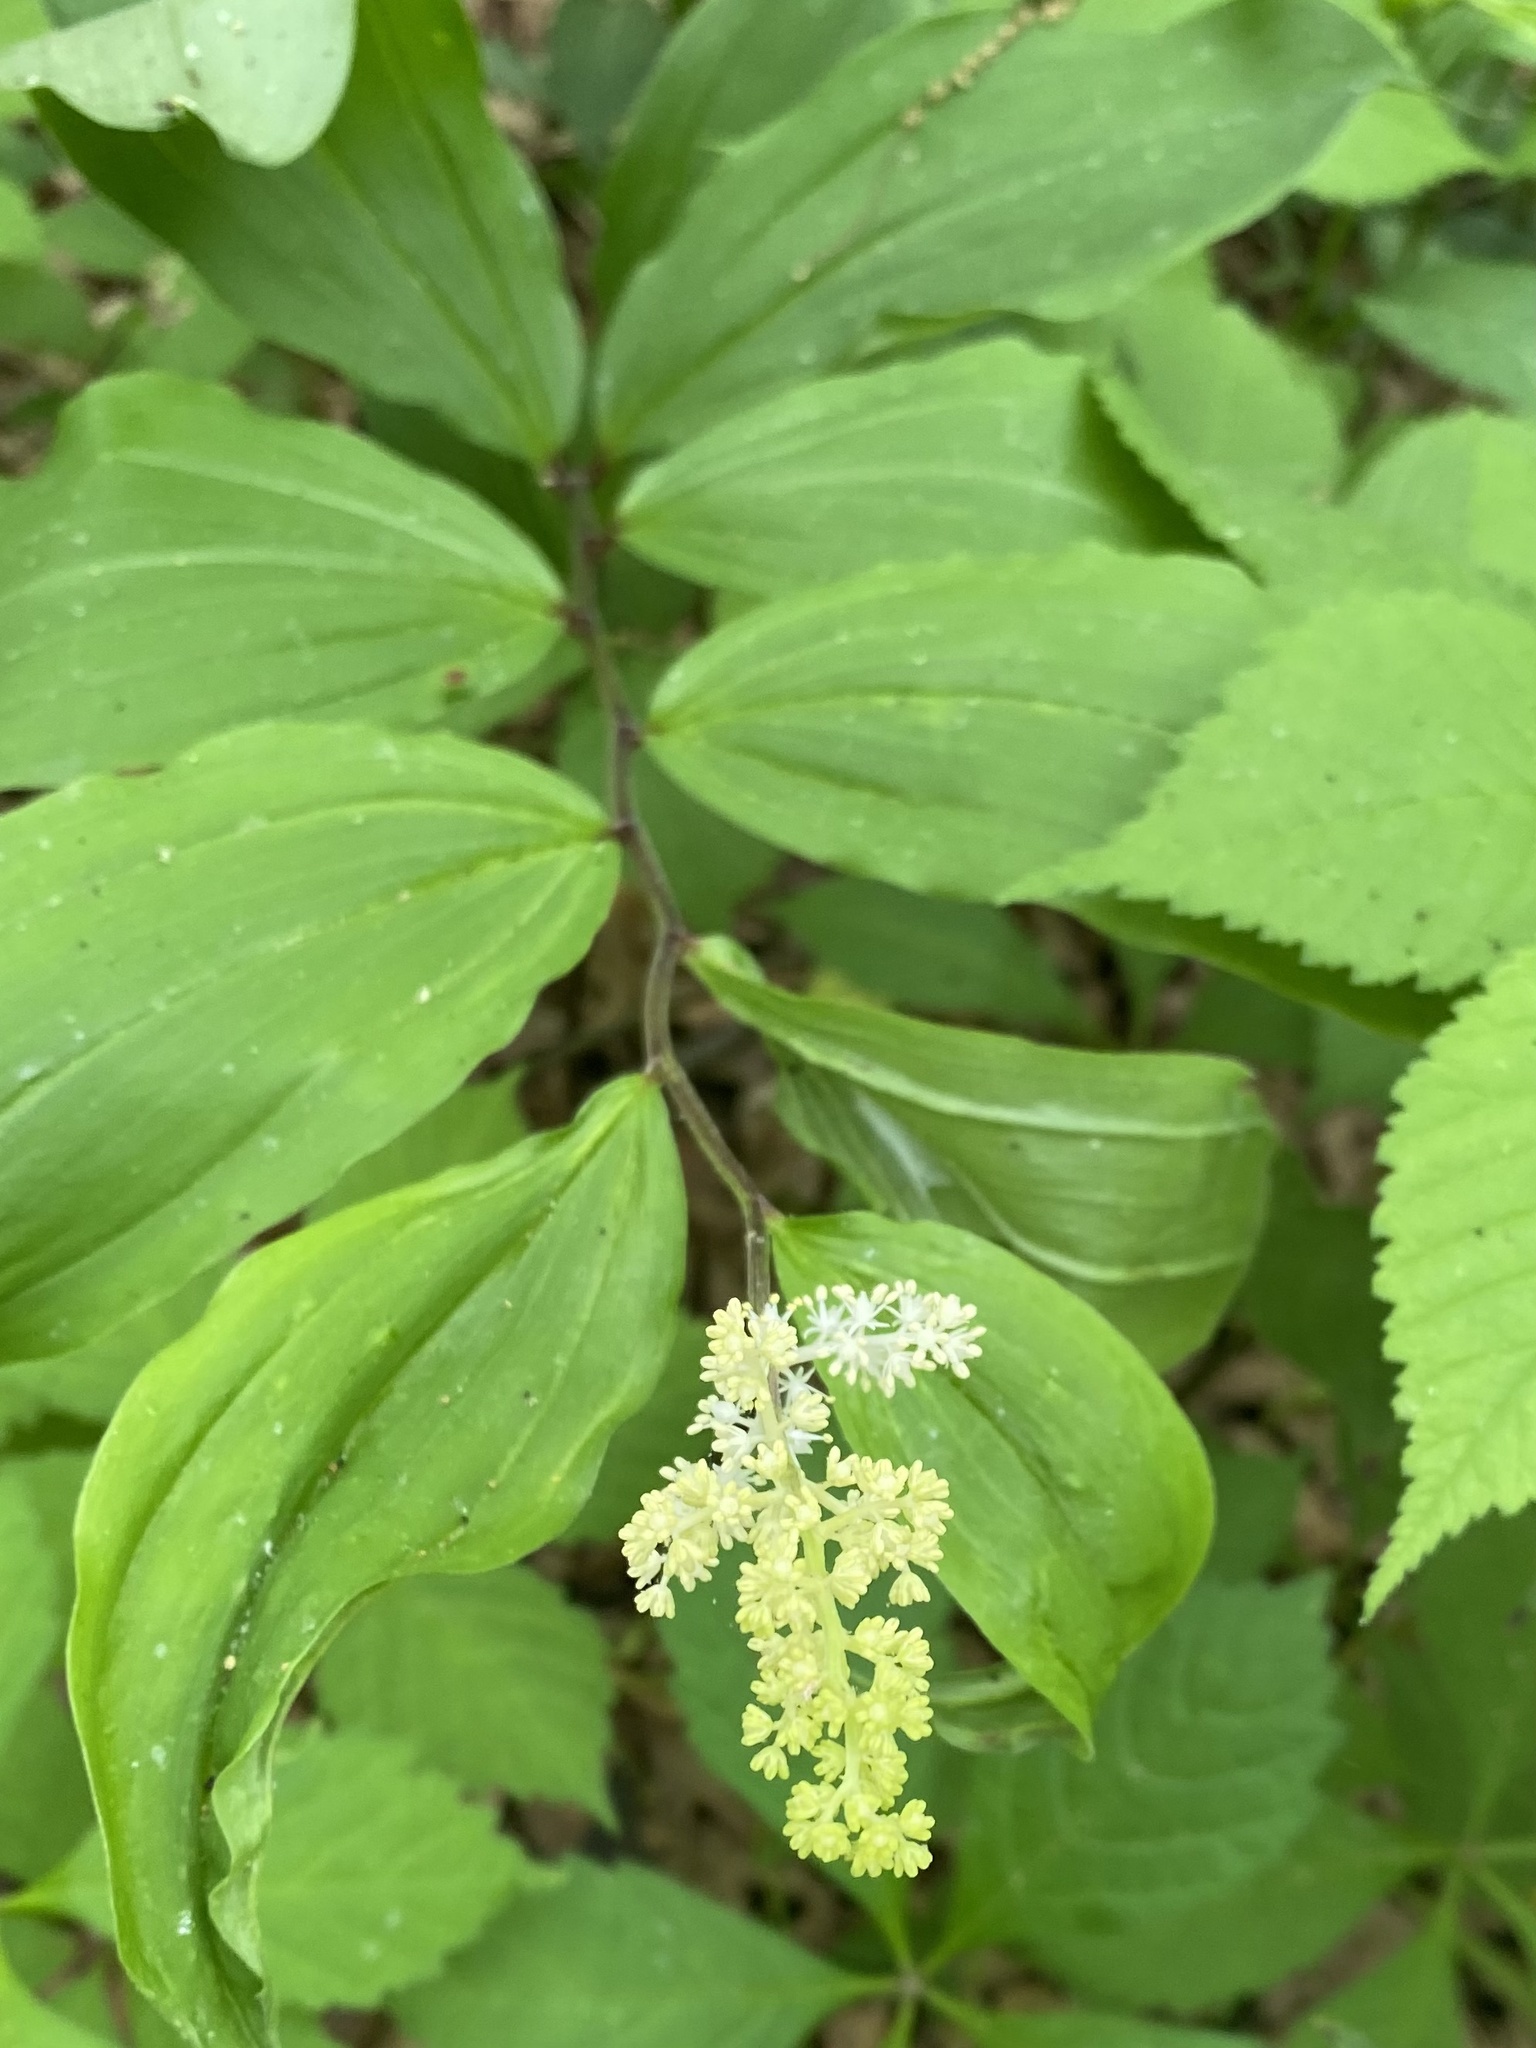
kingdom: Plantae
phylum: Tracheophyta
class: Liliopsida
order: Asparagales
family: Asparagaceae
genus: Maianthemum
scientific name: Maianthemum racemosum
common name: False spikenard
